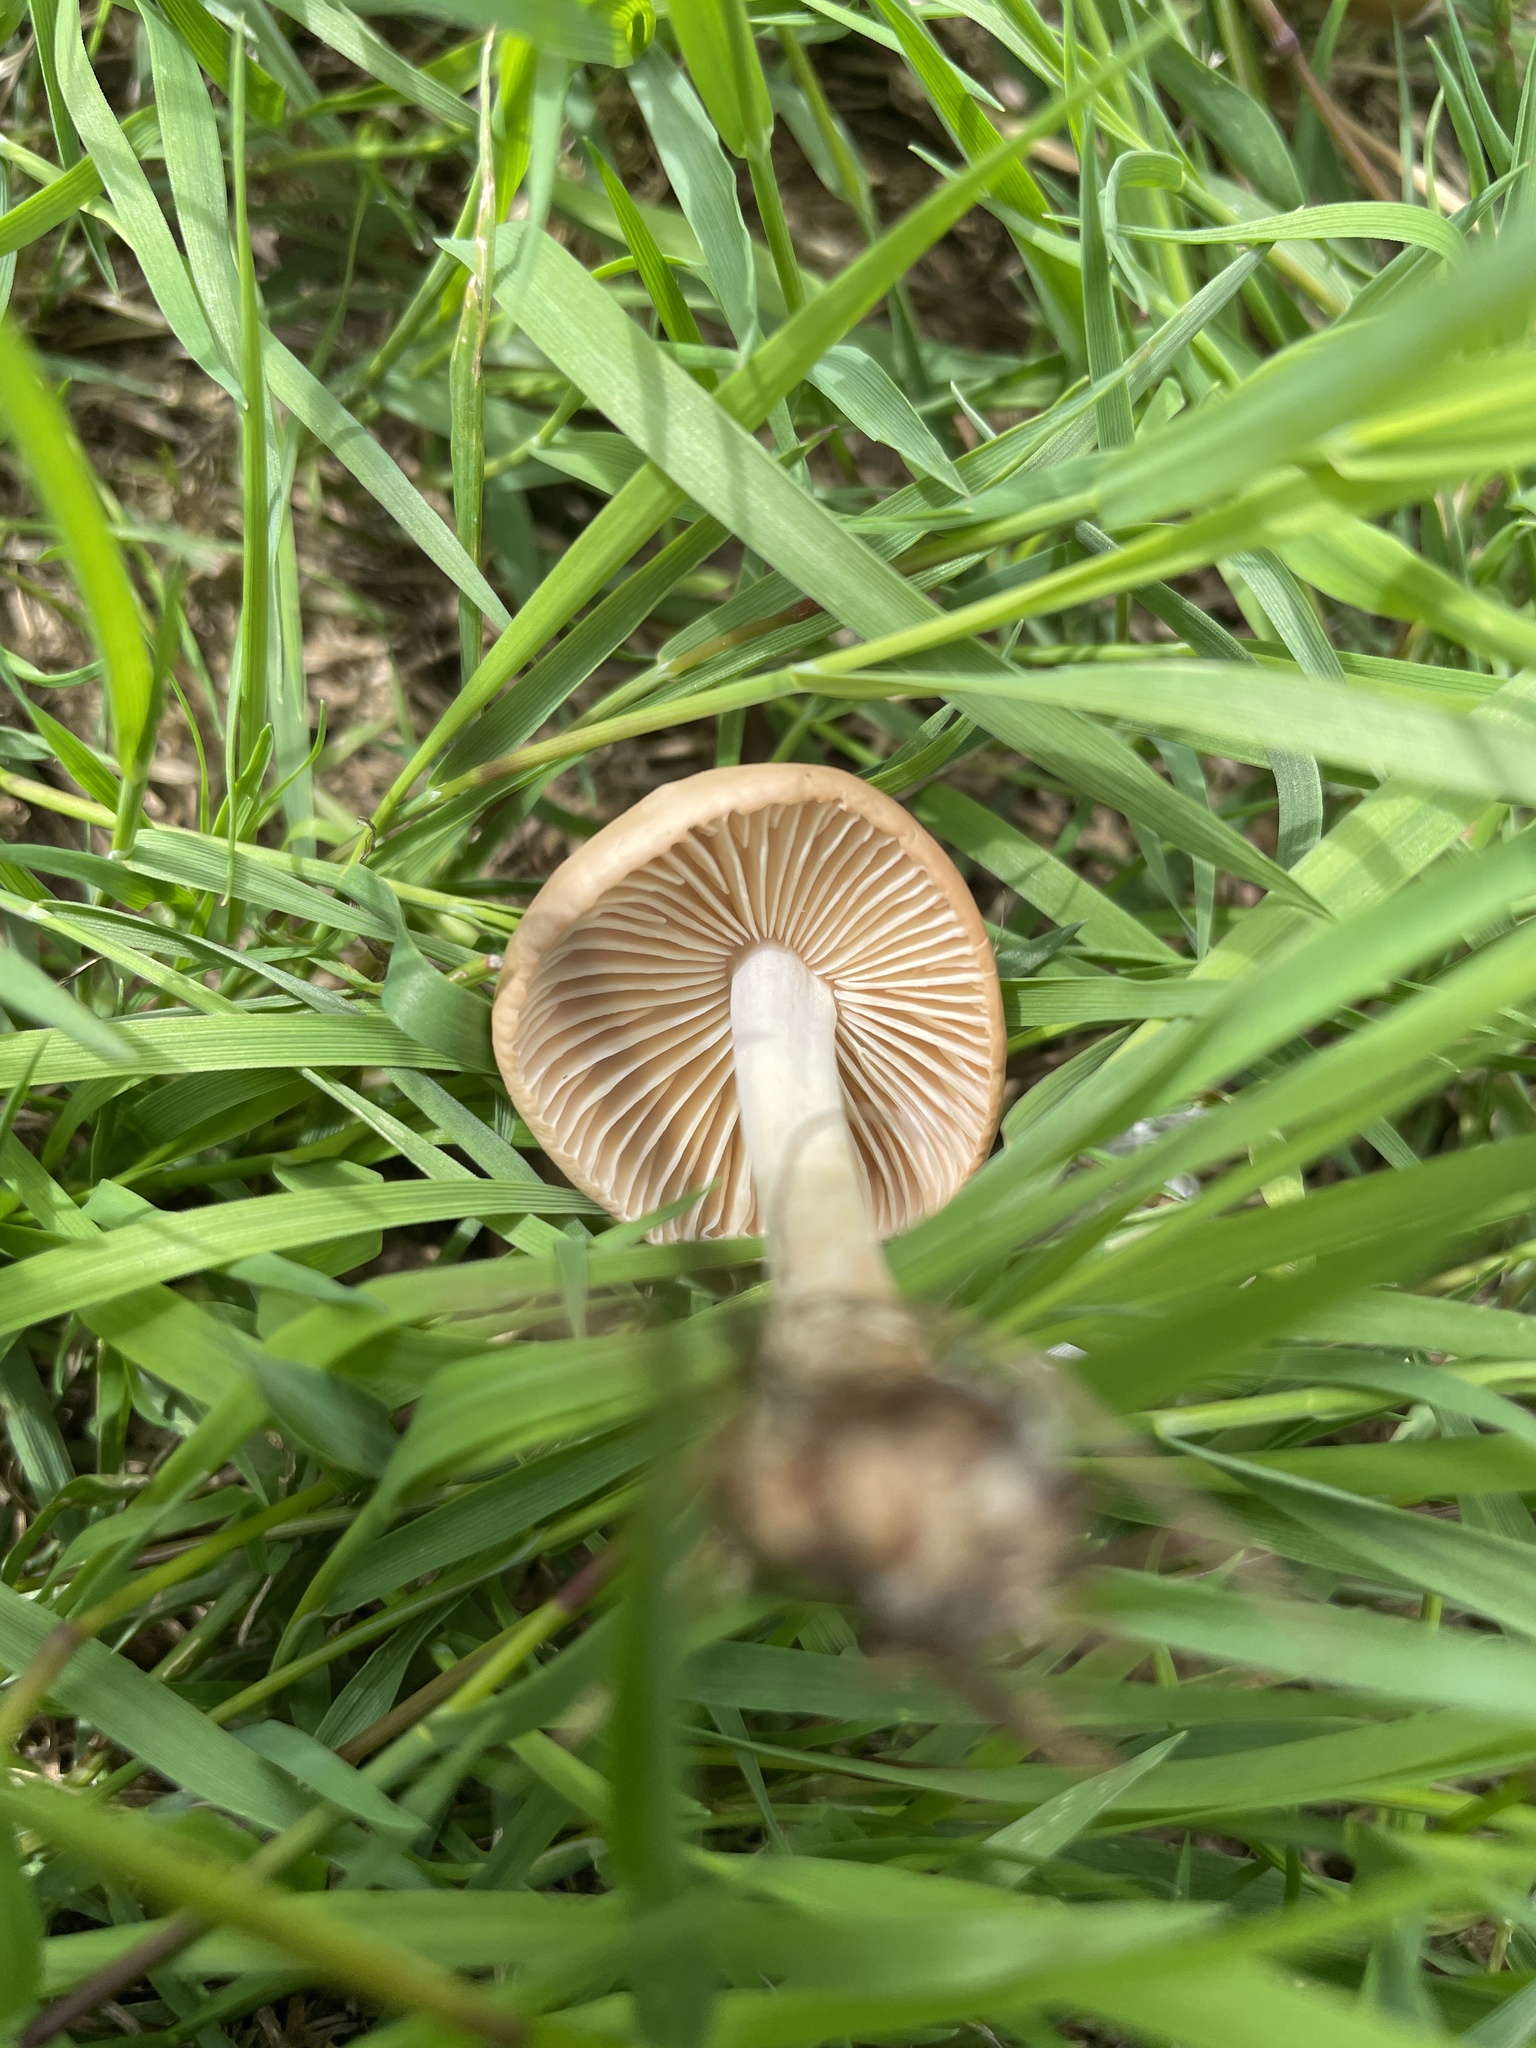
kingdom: Fungi
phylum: Basidiomycota
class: Agaricomycetes
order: Agaricales
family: Marasmiaceae
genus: Marasmius
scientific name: Marasmius oreades
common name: Fairy ring champignon
